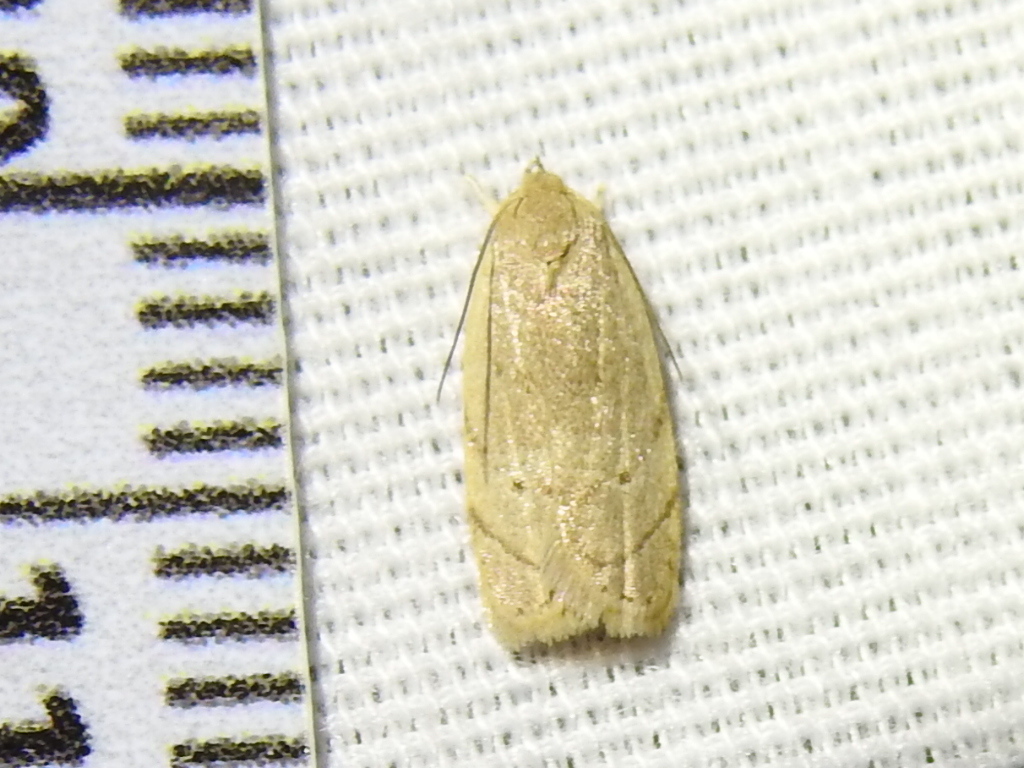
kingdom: Animalia
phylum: Arthropoda
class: Insecta
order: Lepidoptera
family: Depressariidae
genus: Antaeotricha
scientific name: Antaeotricha haesitans
